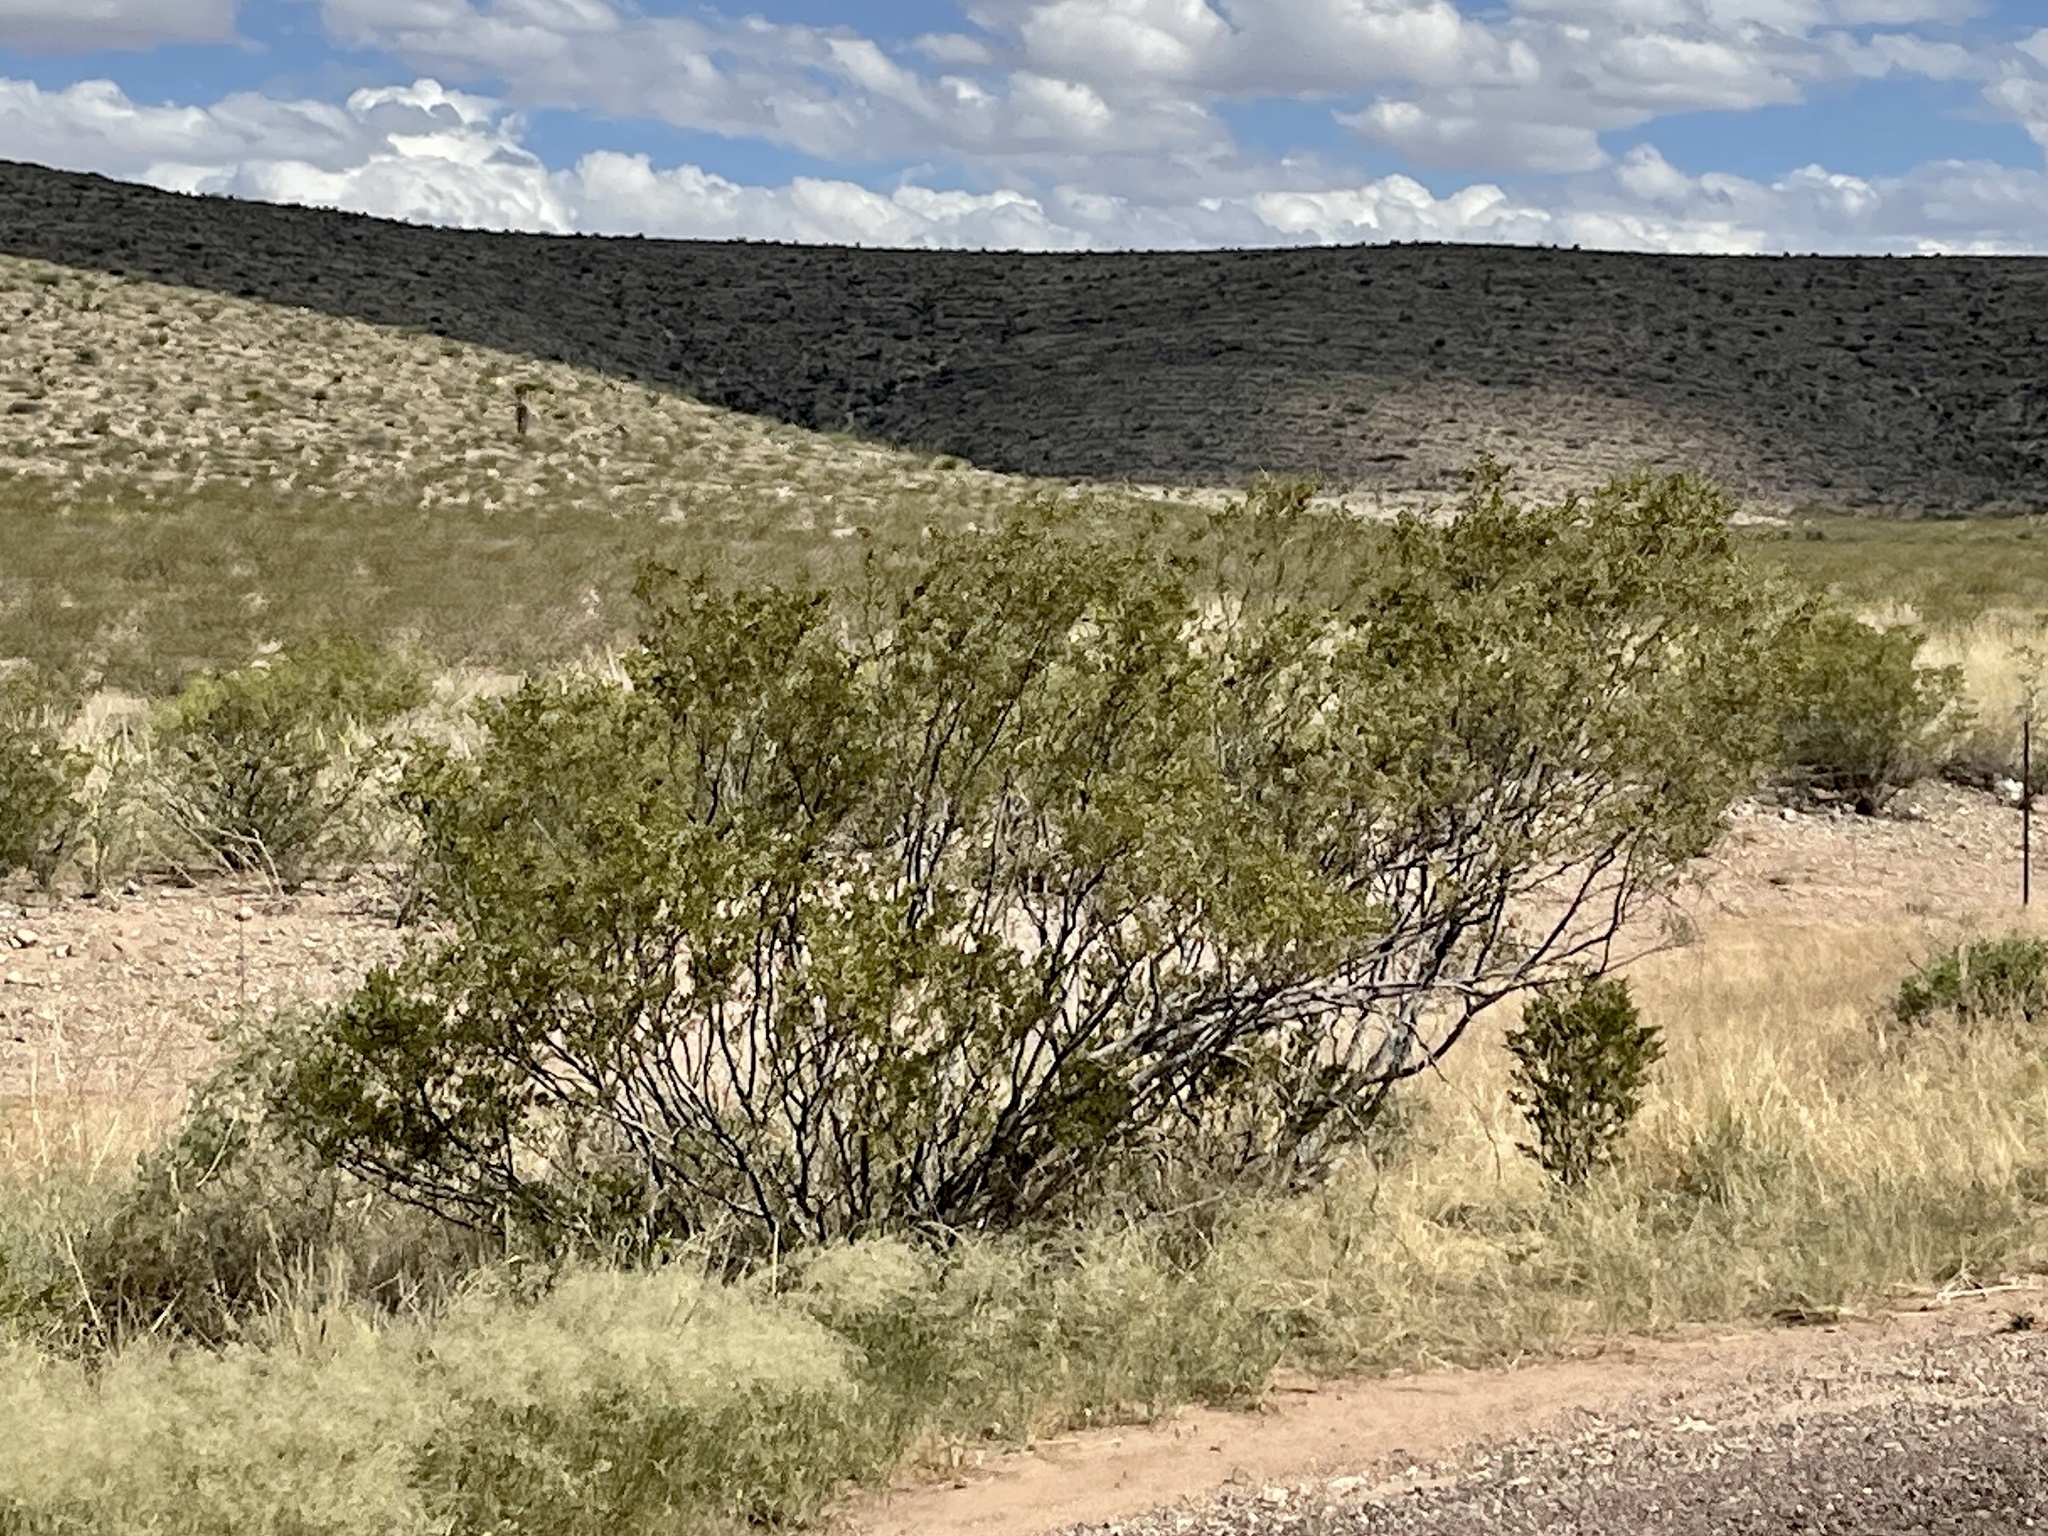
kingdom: Plantae
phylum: Tracheophyta
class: Magnoliopsida
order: Zygophyllales
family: Zygophyllaceae
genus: Larrea
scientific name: Larrea tridentata
